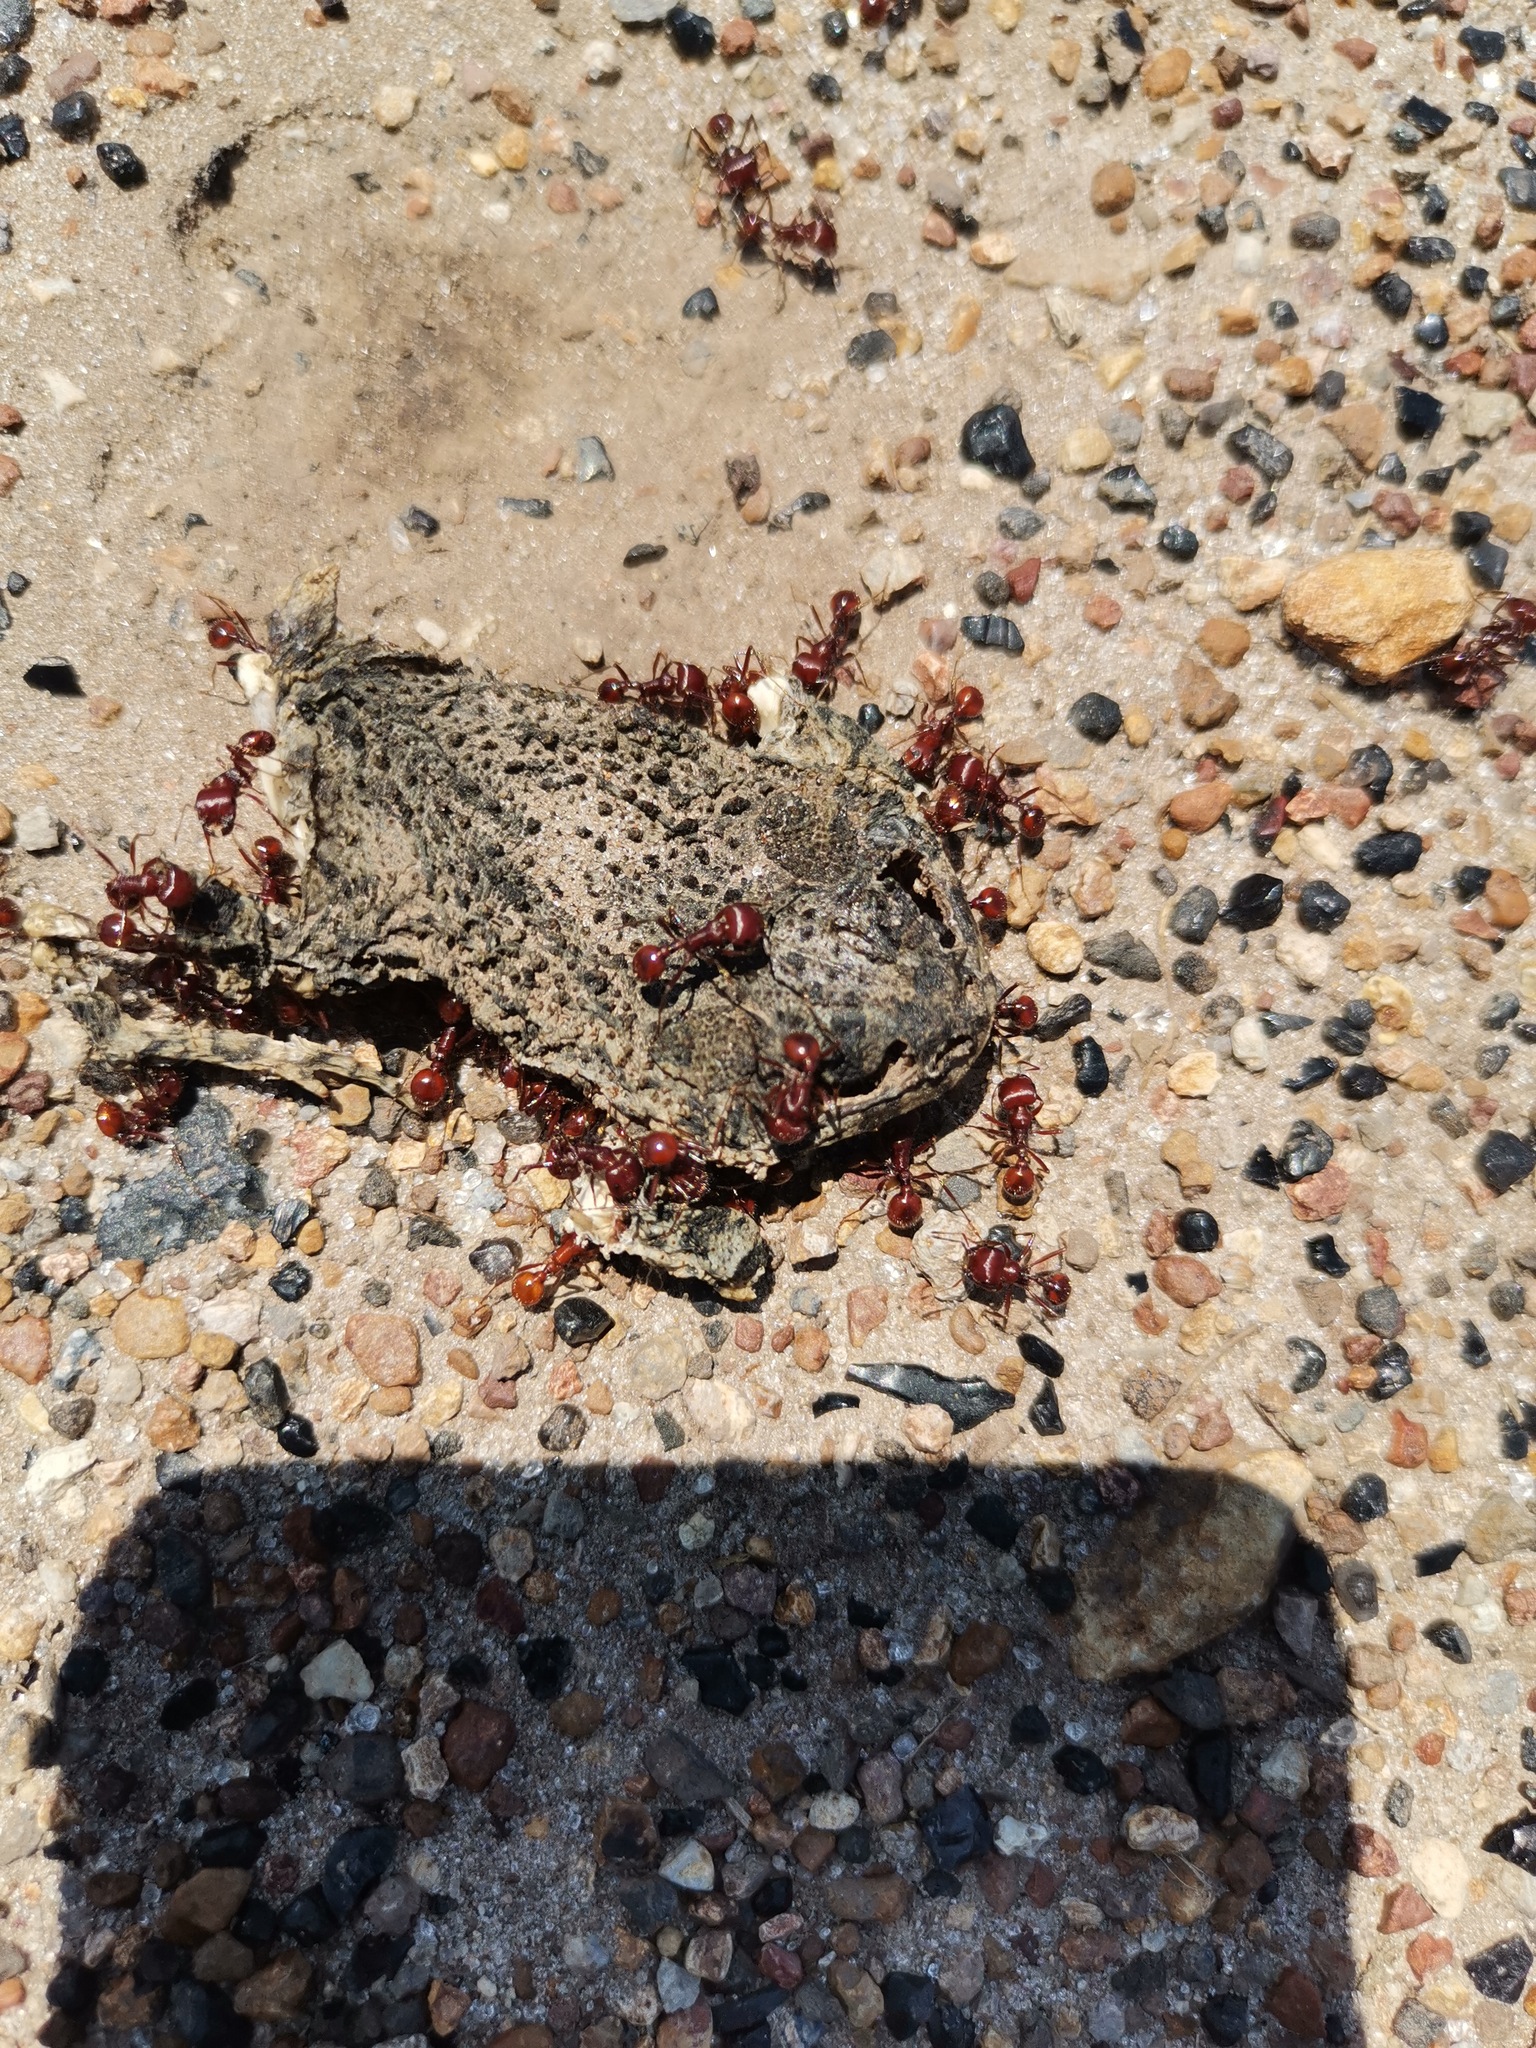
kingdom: Animalia
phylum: Chordata
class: Amphibia
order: Anura
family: Bufonidae
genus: Anaxyrus
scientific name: Anaxyrus compactilis
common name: Plateau toad
